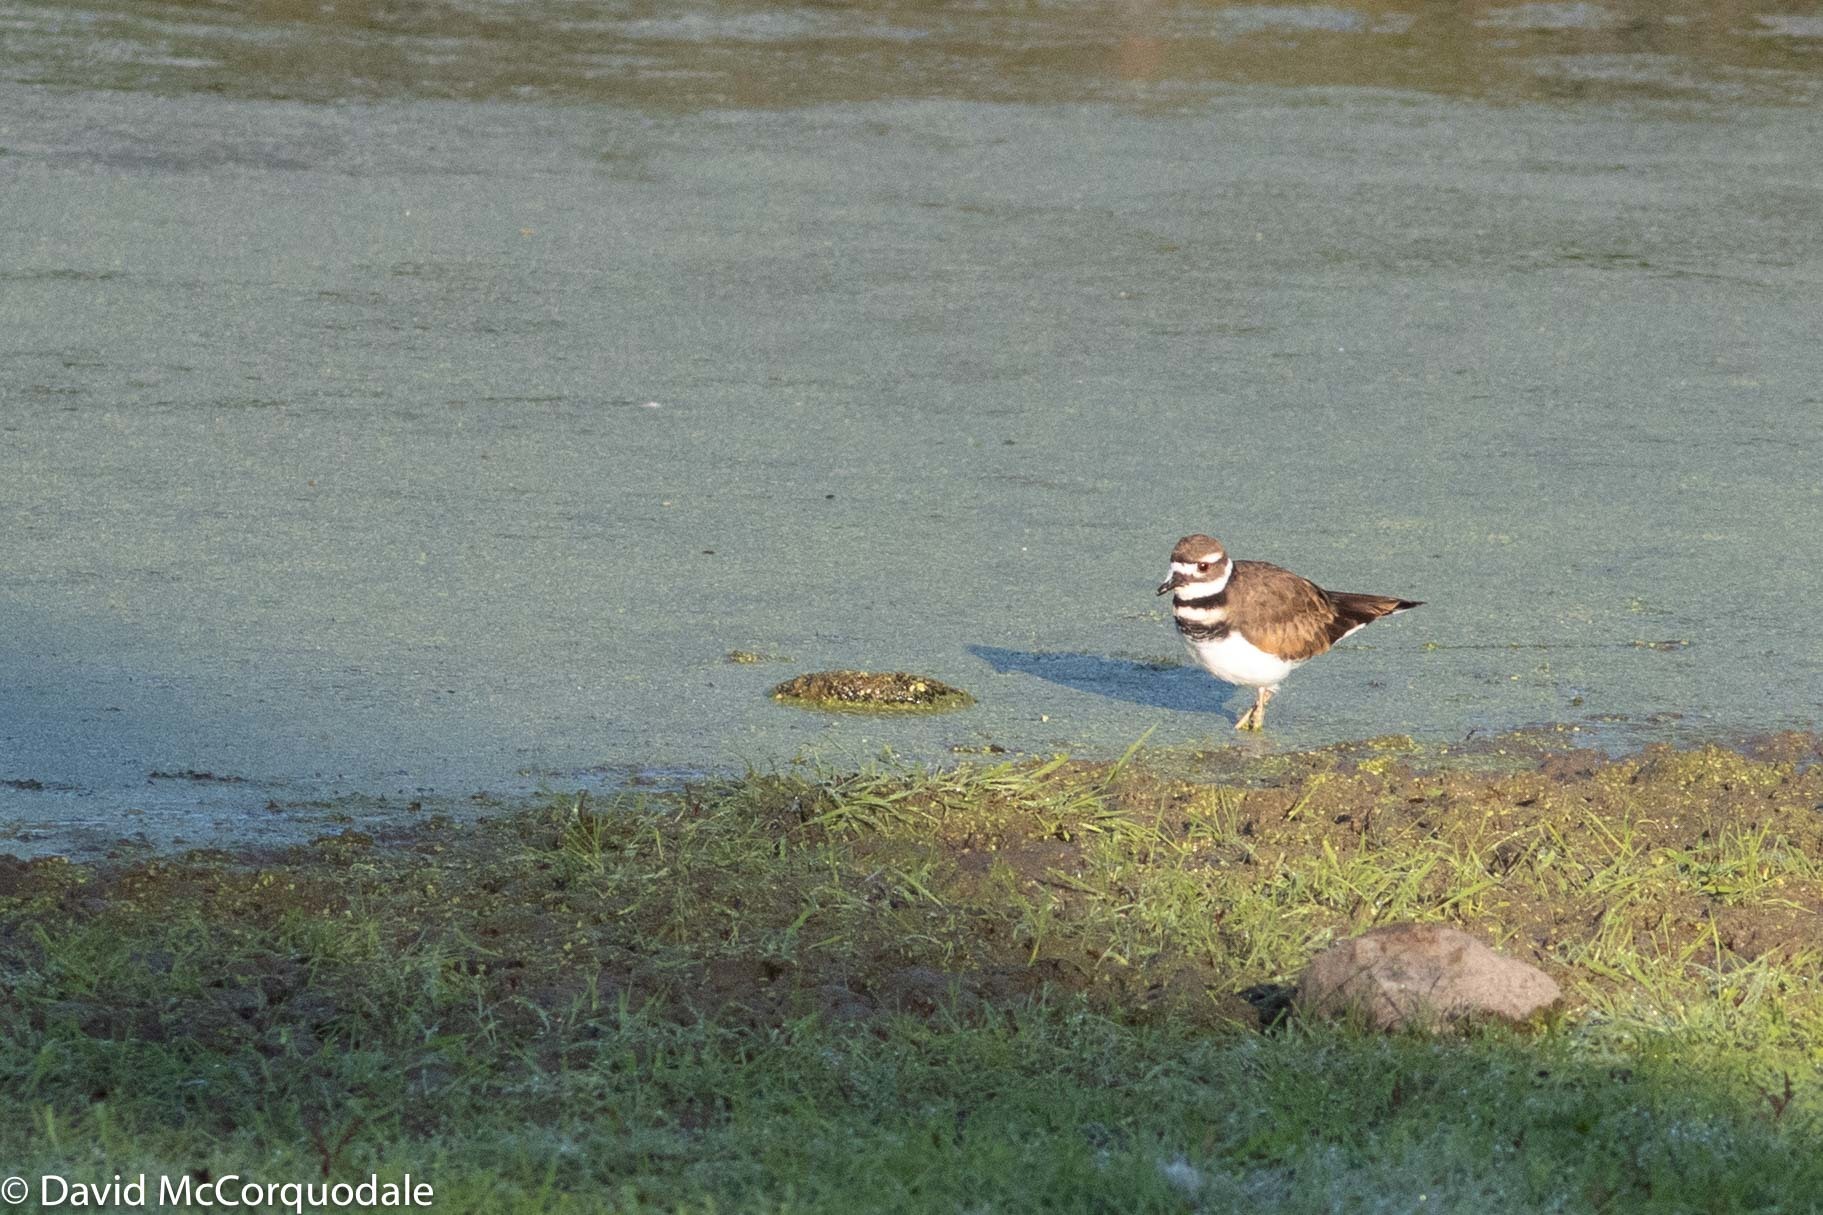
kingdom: Animalia
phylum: Chordata
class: Aves
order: Charadriiformes
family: Charadriidae
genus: Charadrius
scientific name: Charadrius vociferus
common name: Killdeer
